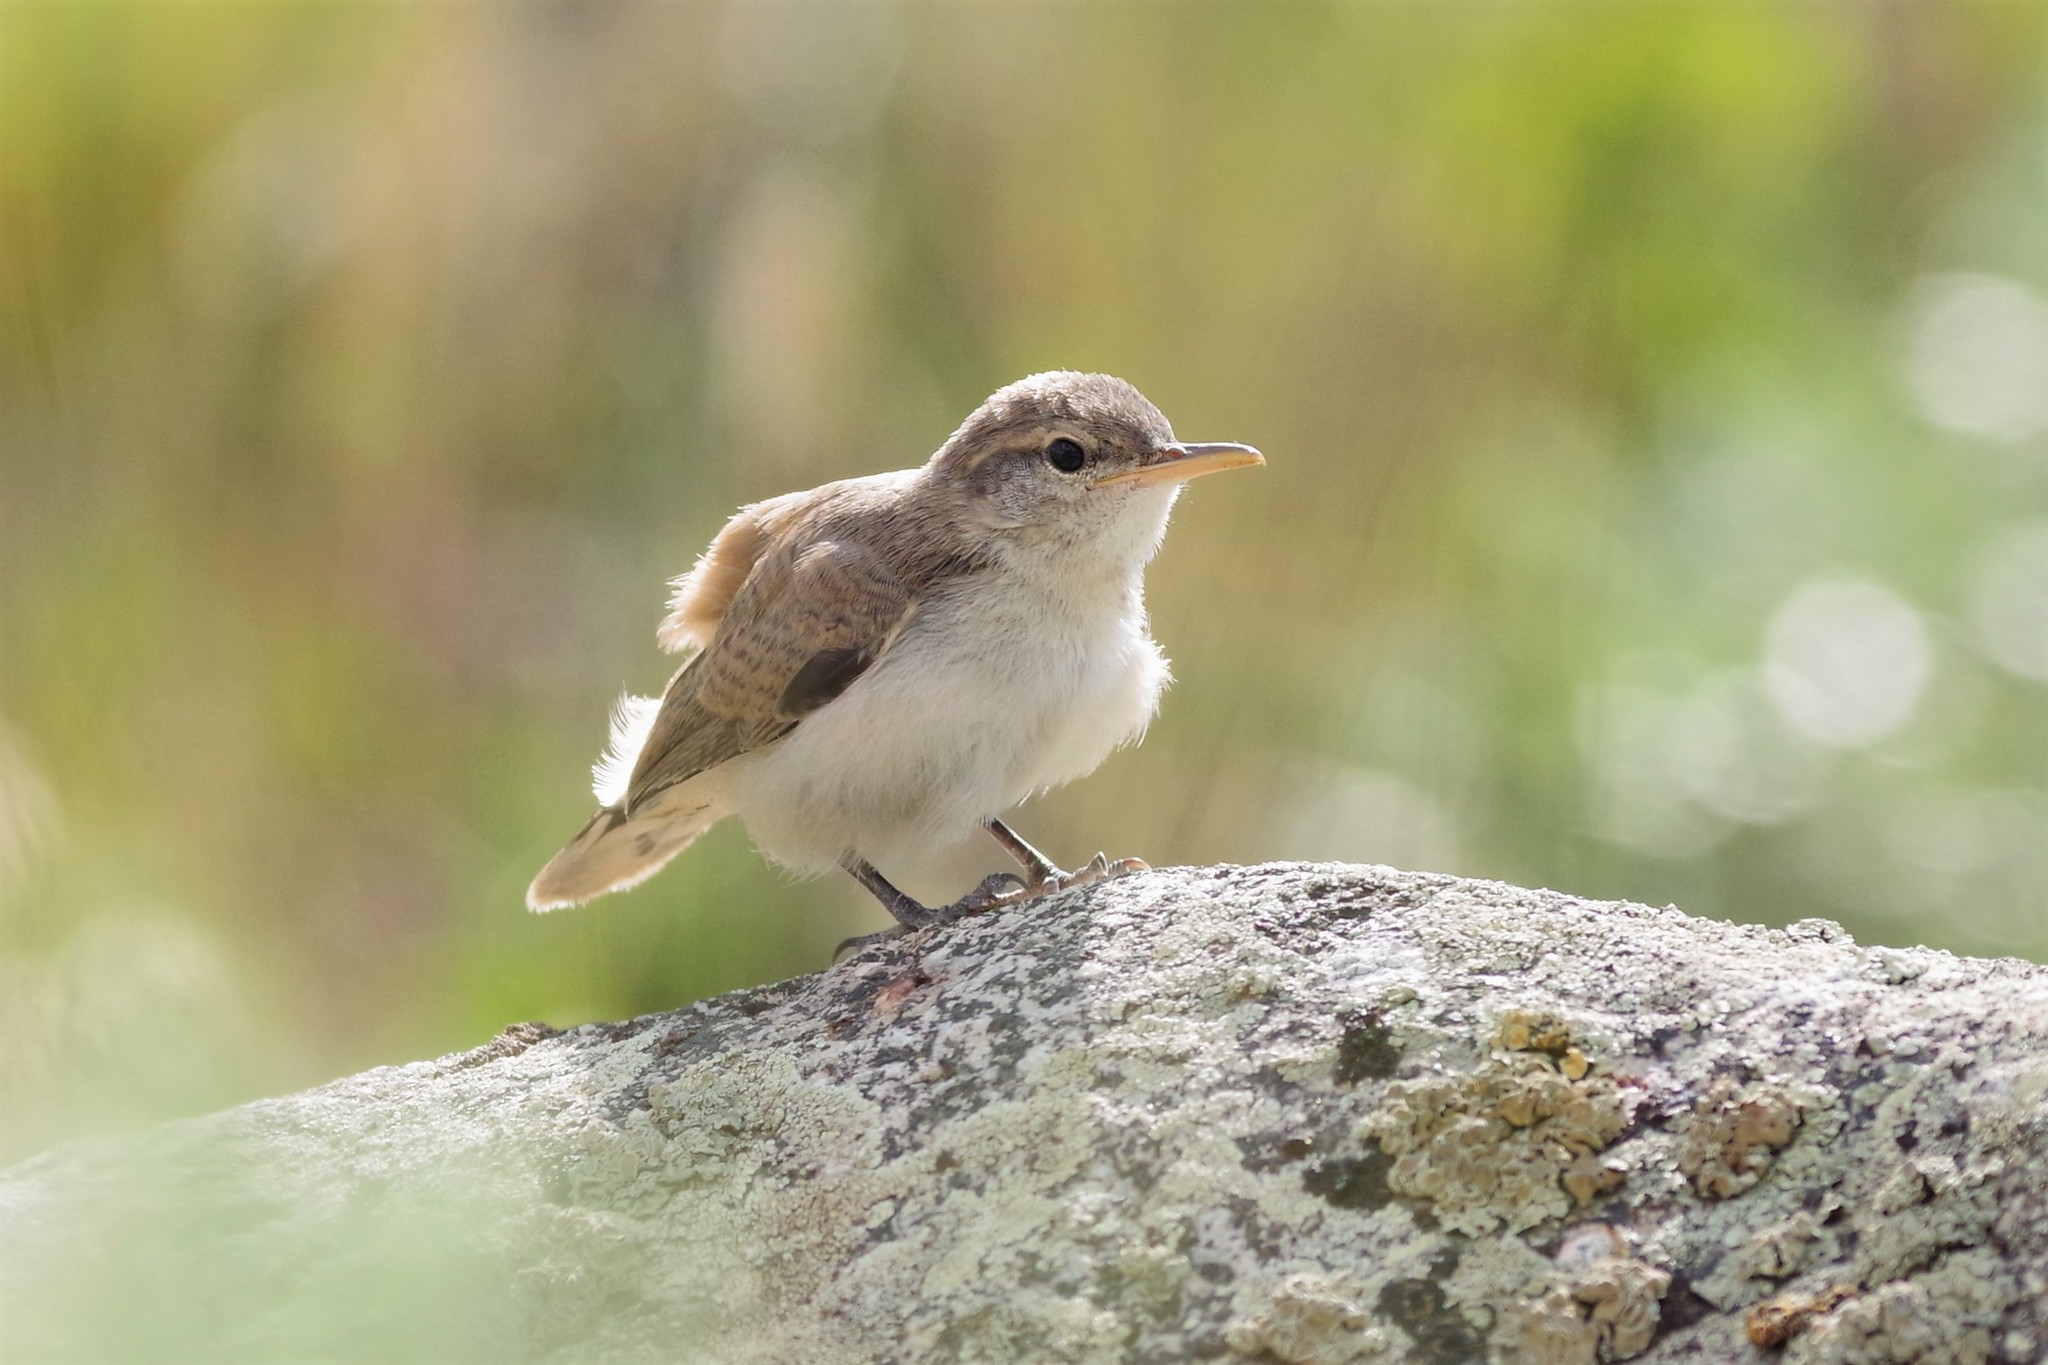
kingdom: Animalia
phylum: Chordata
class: Aves
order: Passeriformes
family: Troglodytidae
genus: Salpinctes
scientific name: Salpinctes obsoletus
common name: Rock wren
